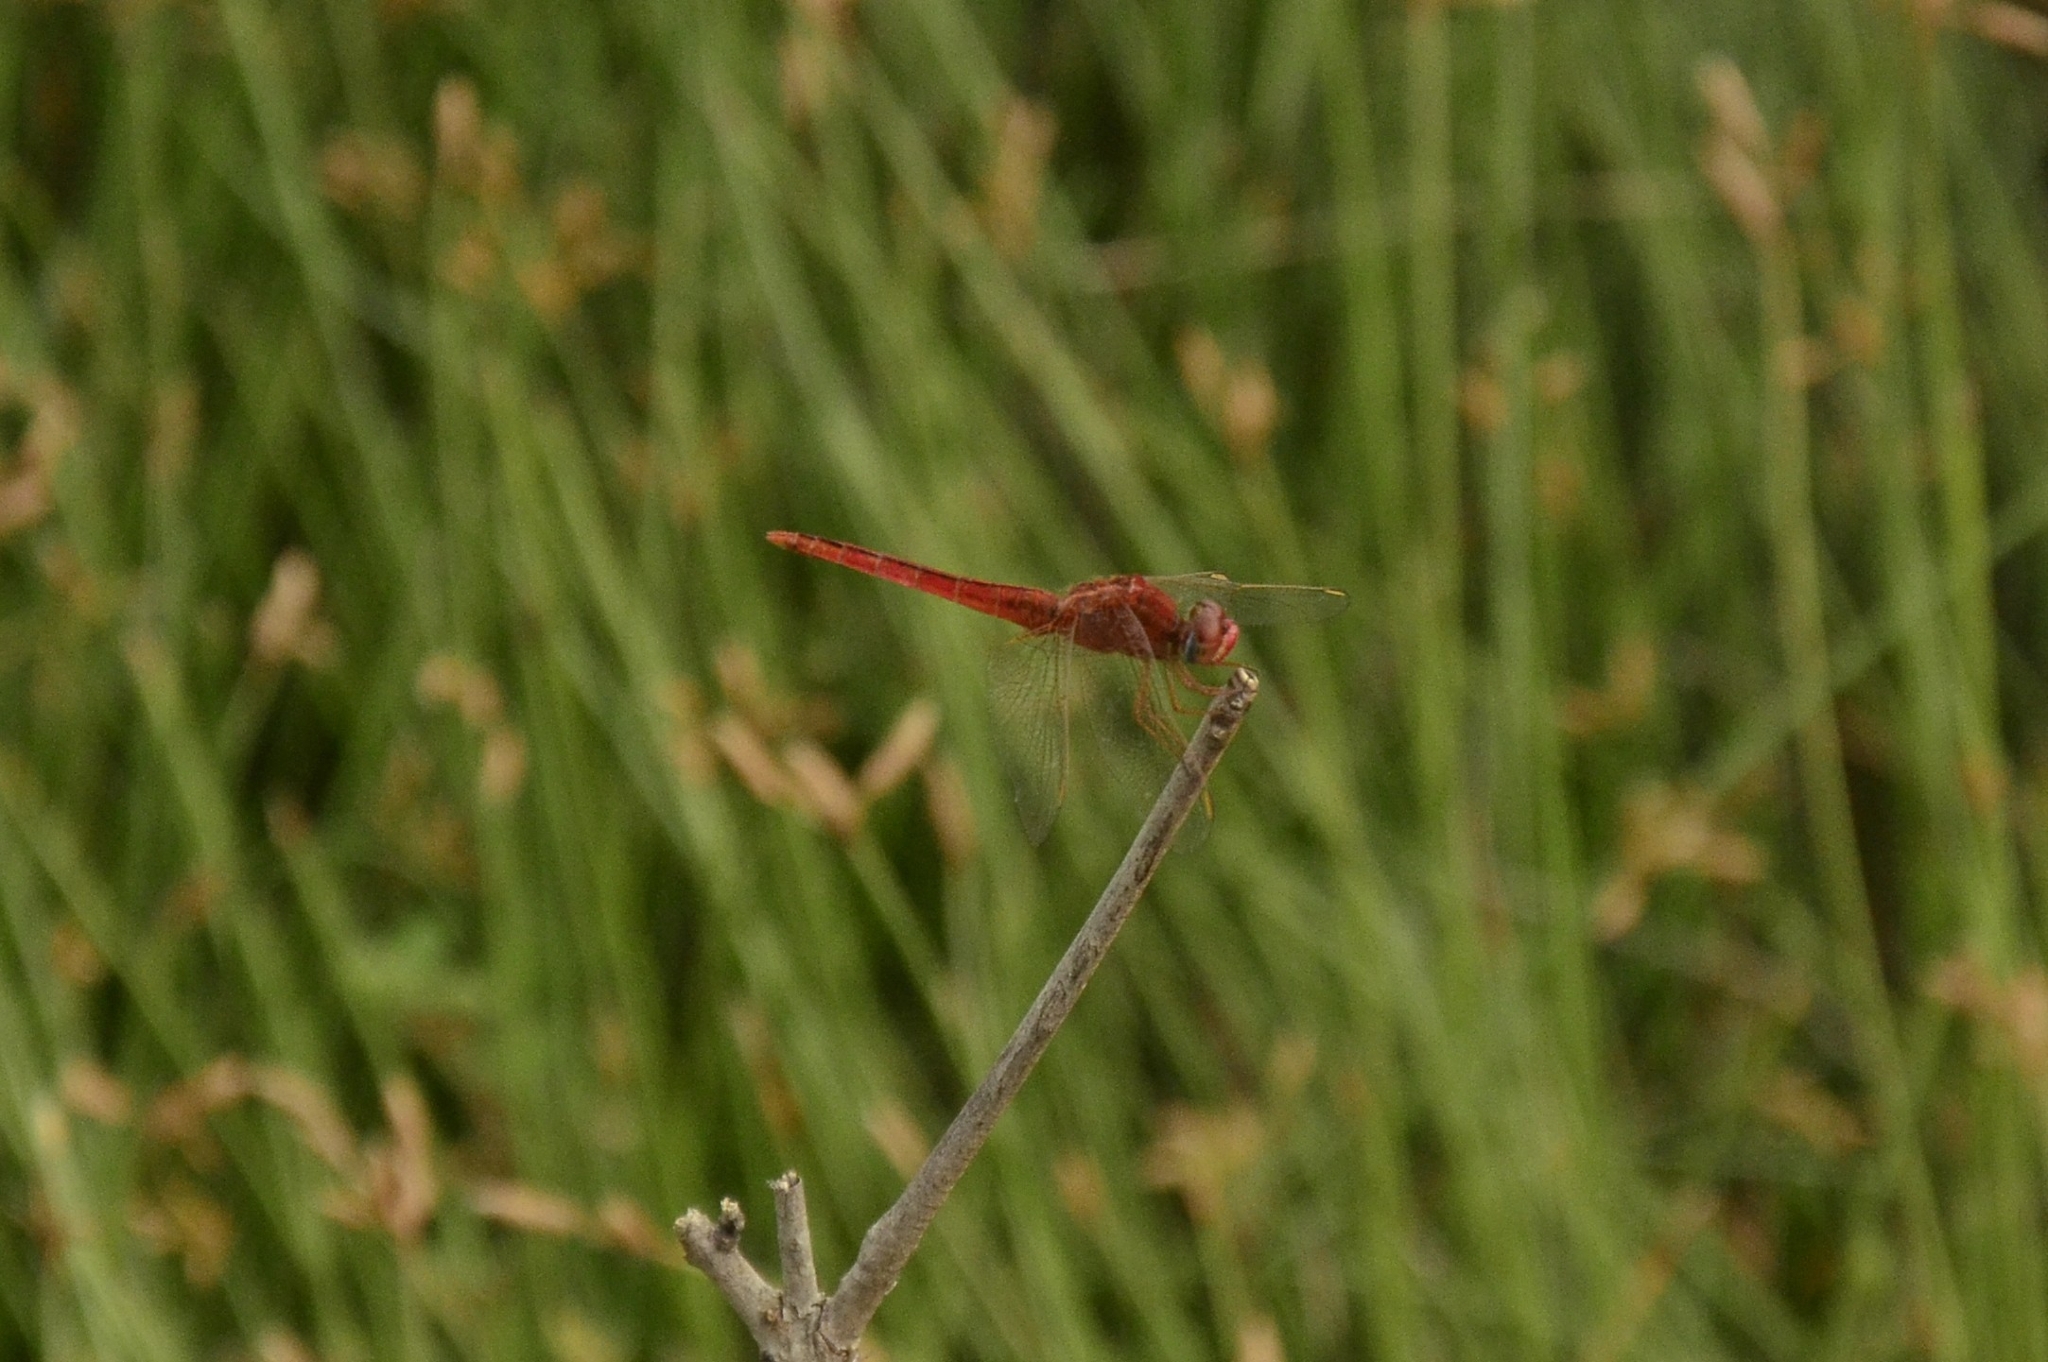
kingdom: Animalia
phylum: Arthropoda
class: Insecta
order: Odonata
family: Libellulidae
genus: Crocothemis
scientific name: Crocothemis servilia
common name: Scarlet skimmer
